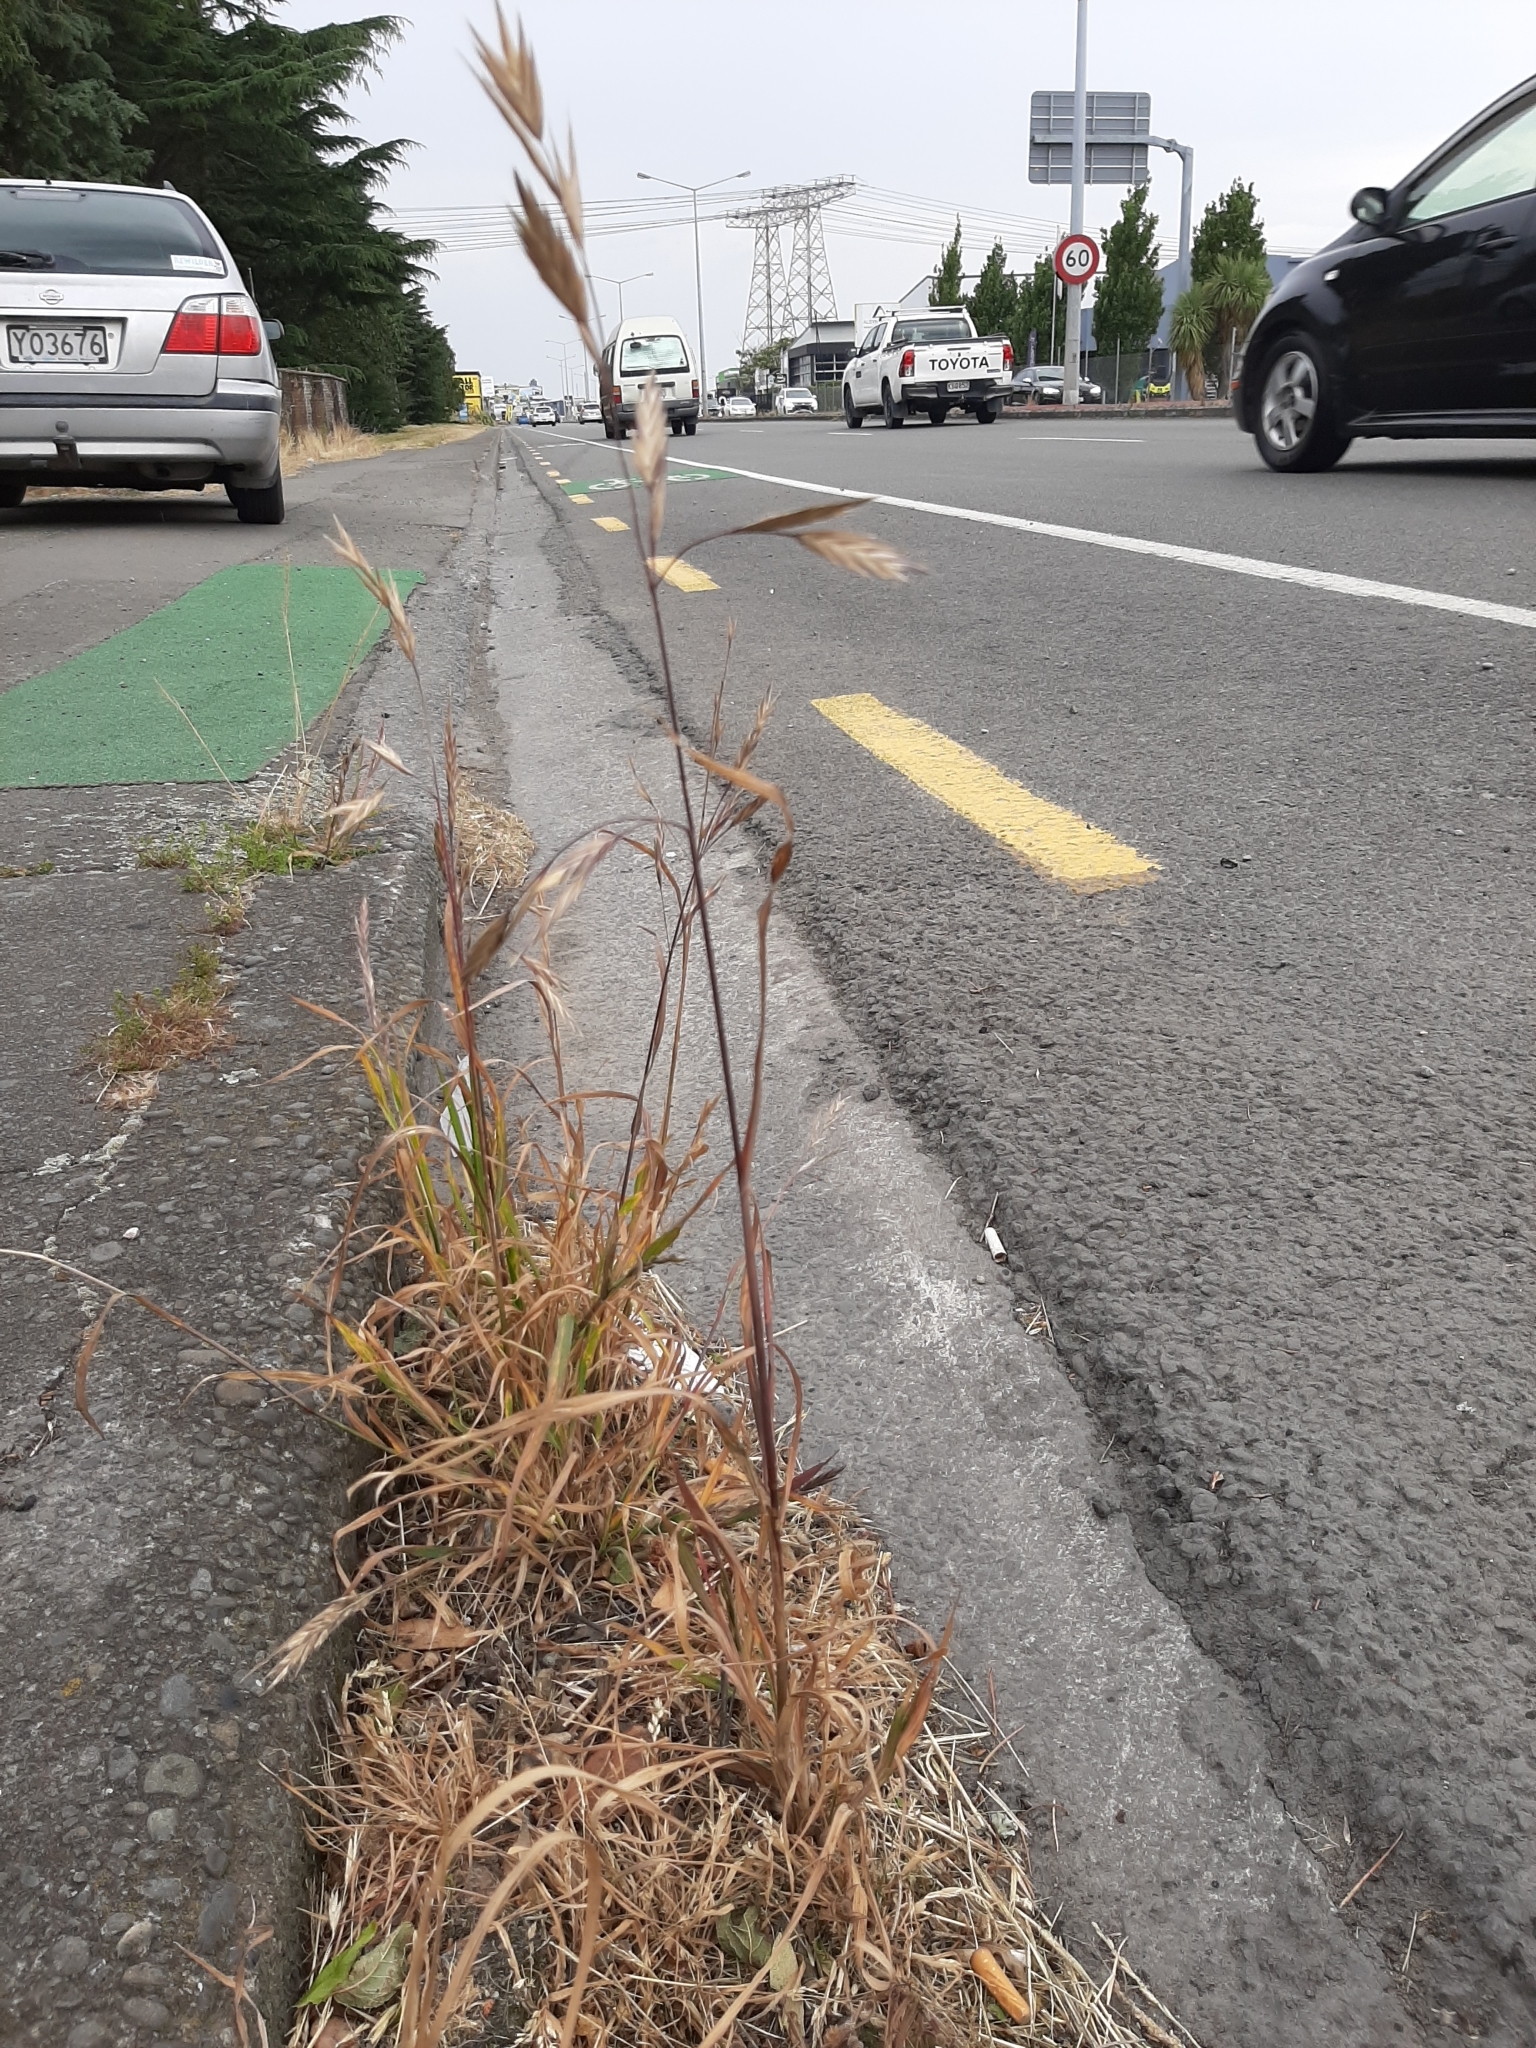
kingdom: Plantae
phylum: Tracheophyta
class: Liliopsida
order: Poales
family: Poaceae
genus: Bromus
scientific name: Bromus catharticus
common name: Rescuegrass
